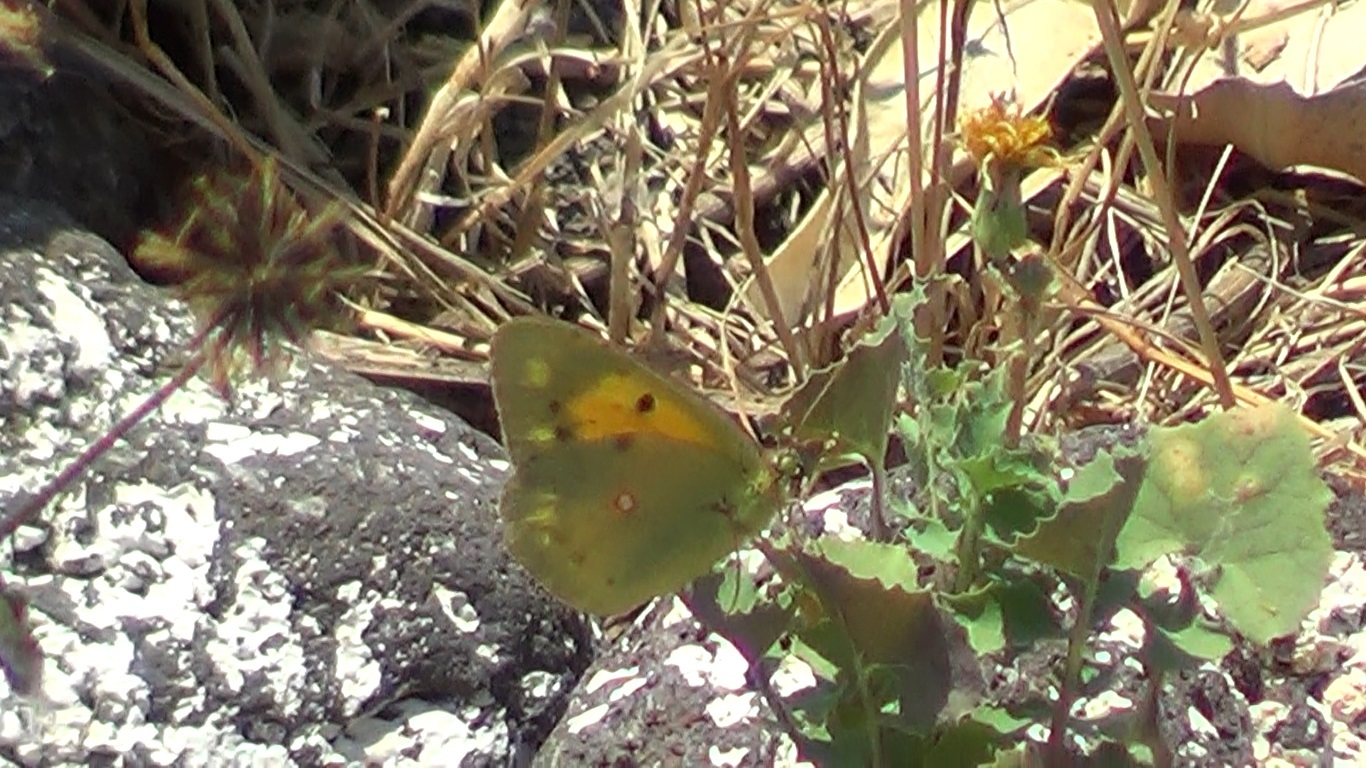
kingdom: Animalia
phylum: Arthropoda
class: Insecta
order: Lepidoptera
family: Pieridae
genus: Colias
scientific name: Colias croceus
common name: Clouded yellow
